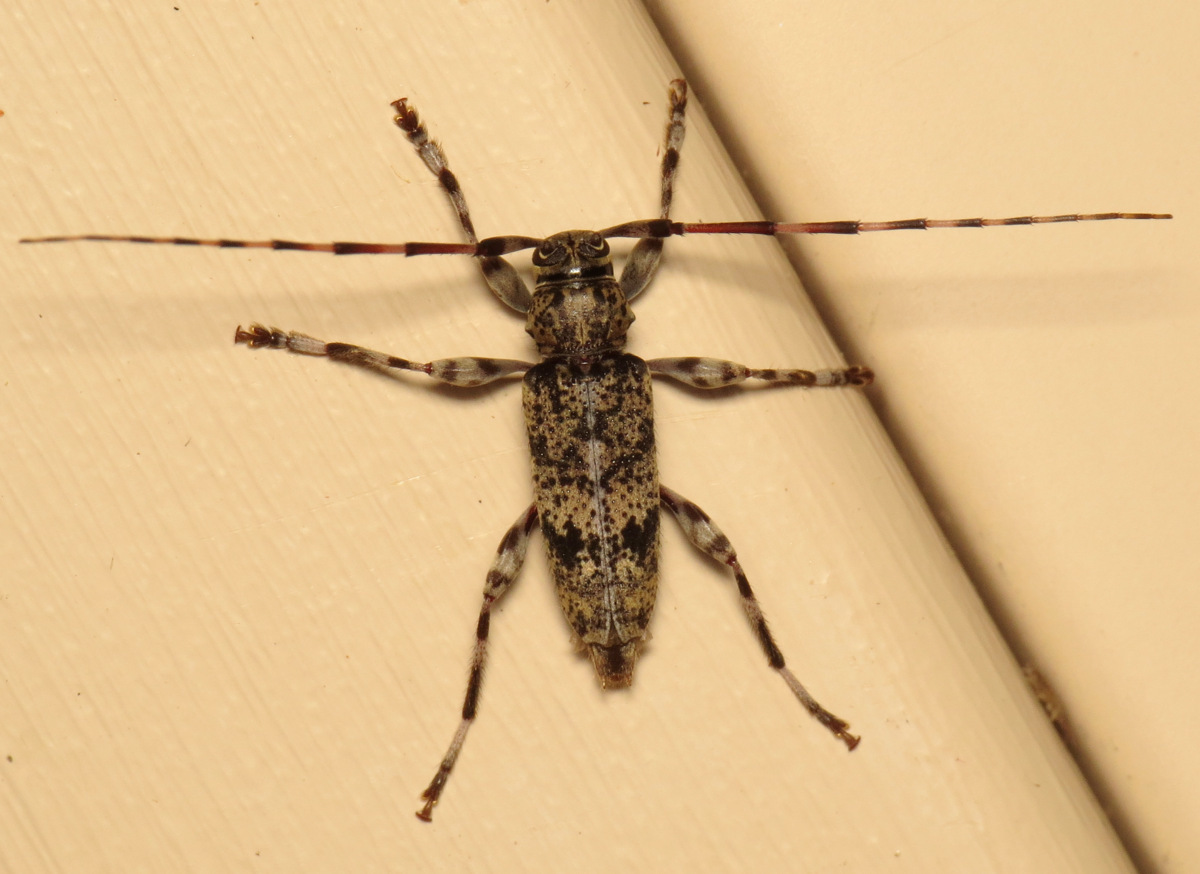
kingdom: Animalia
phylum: Arthropoda
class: Insecta
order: Coleoptera
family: Cerambycidae
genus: Graphisurus
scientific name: Graphisurus fasciatus
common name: Banded graphisurus
